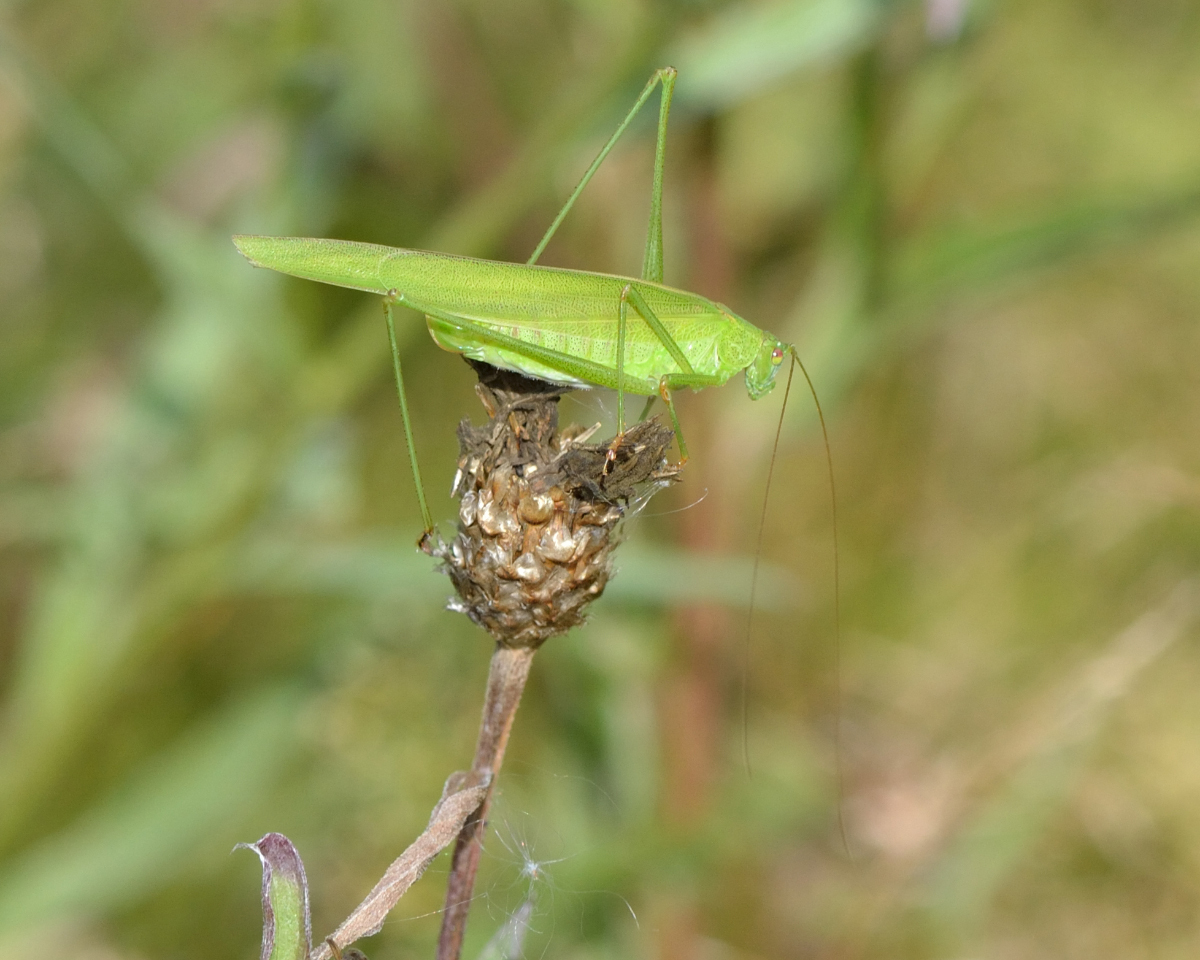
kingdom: Animalia
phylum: Arthropoda
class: Insecta
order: Orthoptera
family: Tettigoniidae
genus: Phaneroptera
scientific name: Phaneroptera falcata
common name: Sickle-bearing bush-cricket
